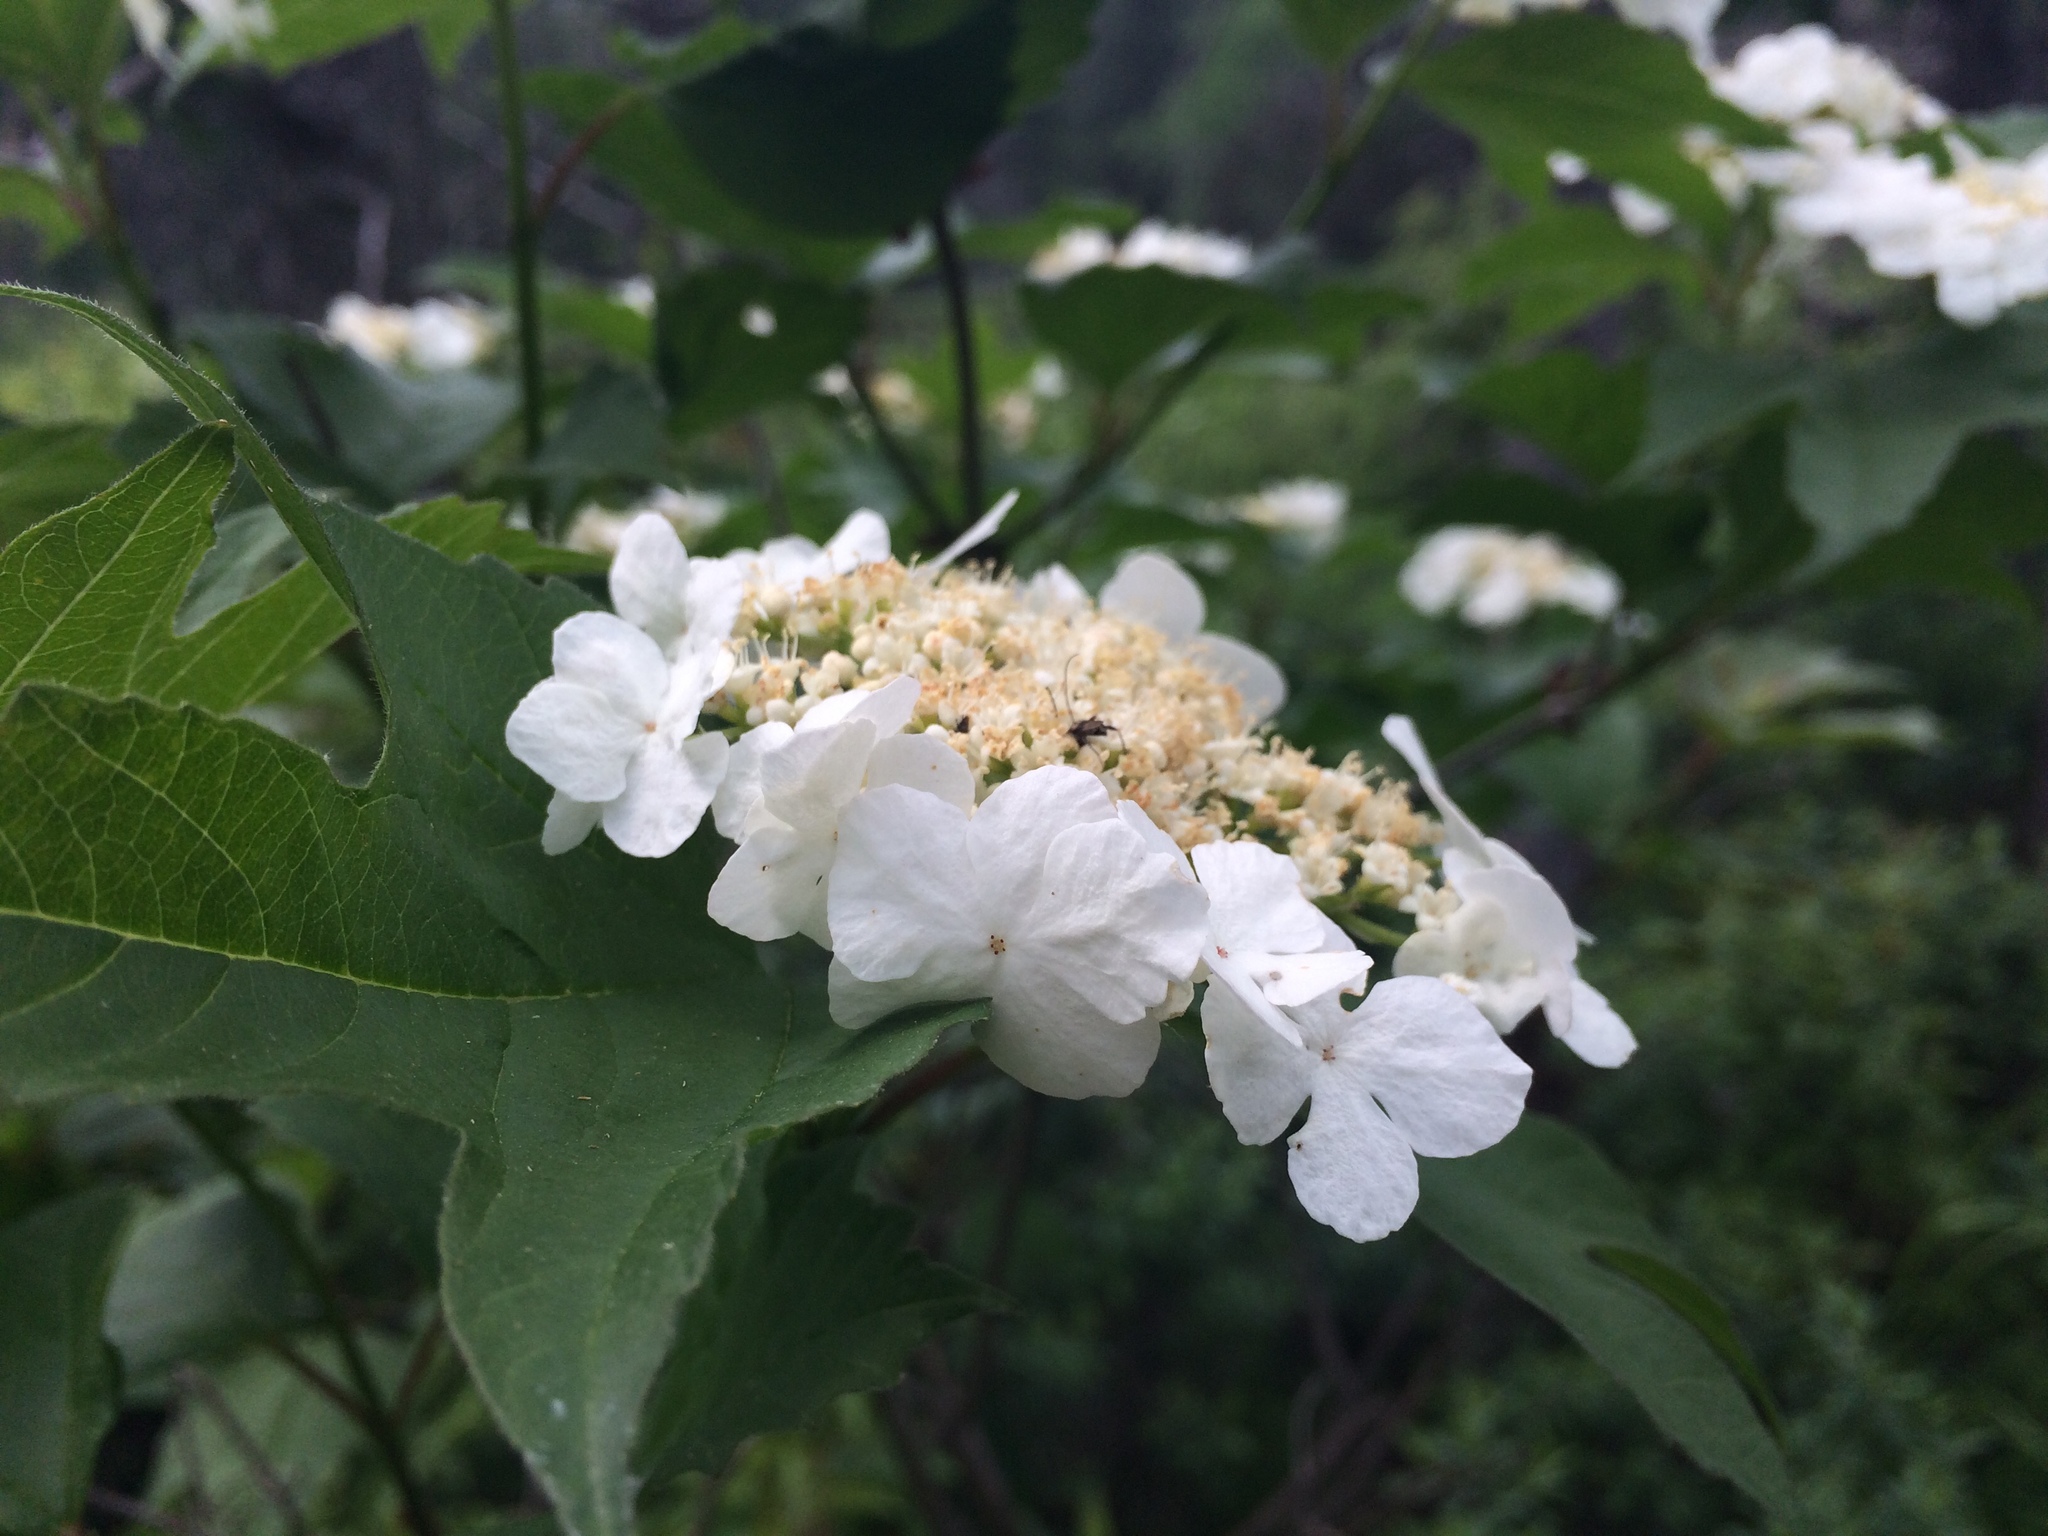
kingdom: Plantae
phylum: Tracheophyta
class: Magnoliopsida
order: Dipsacales
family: Viburnaceae
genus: Viburnum
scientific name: Viburnum trilobum
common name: American cranberrybush
